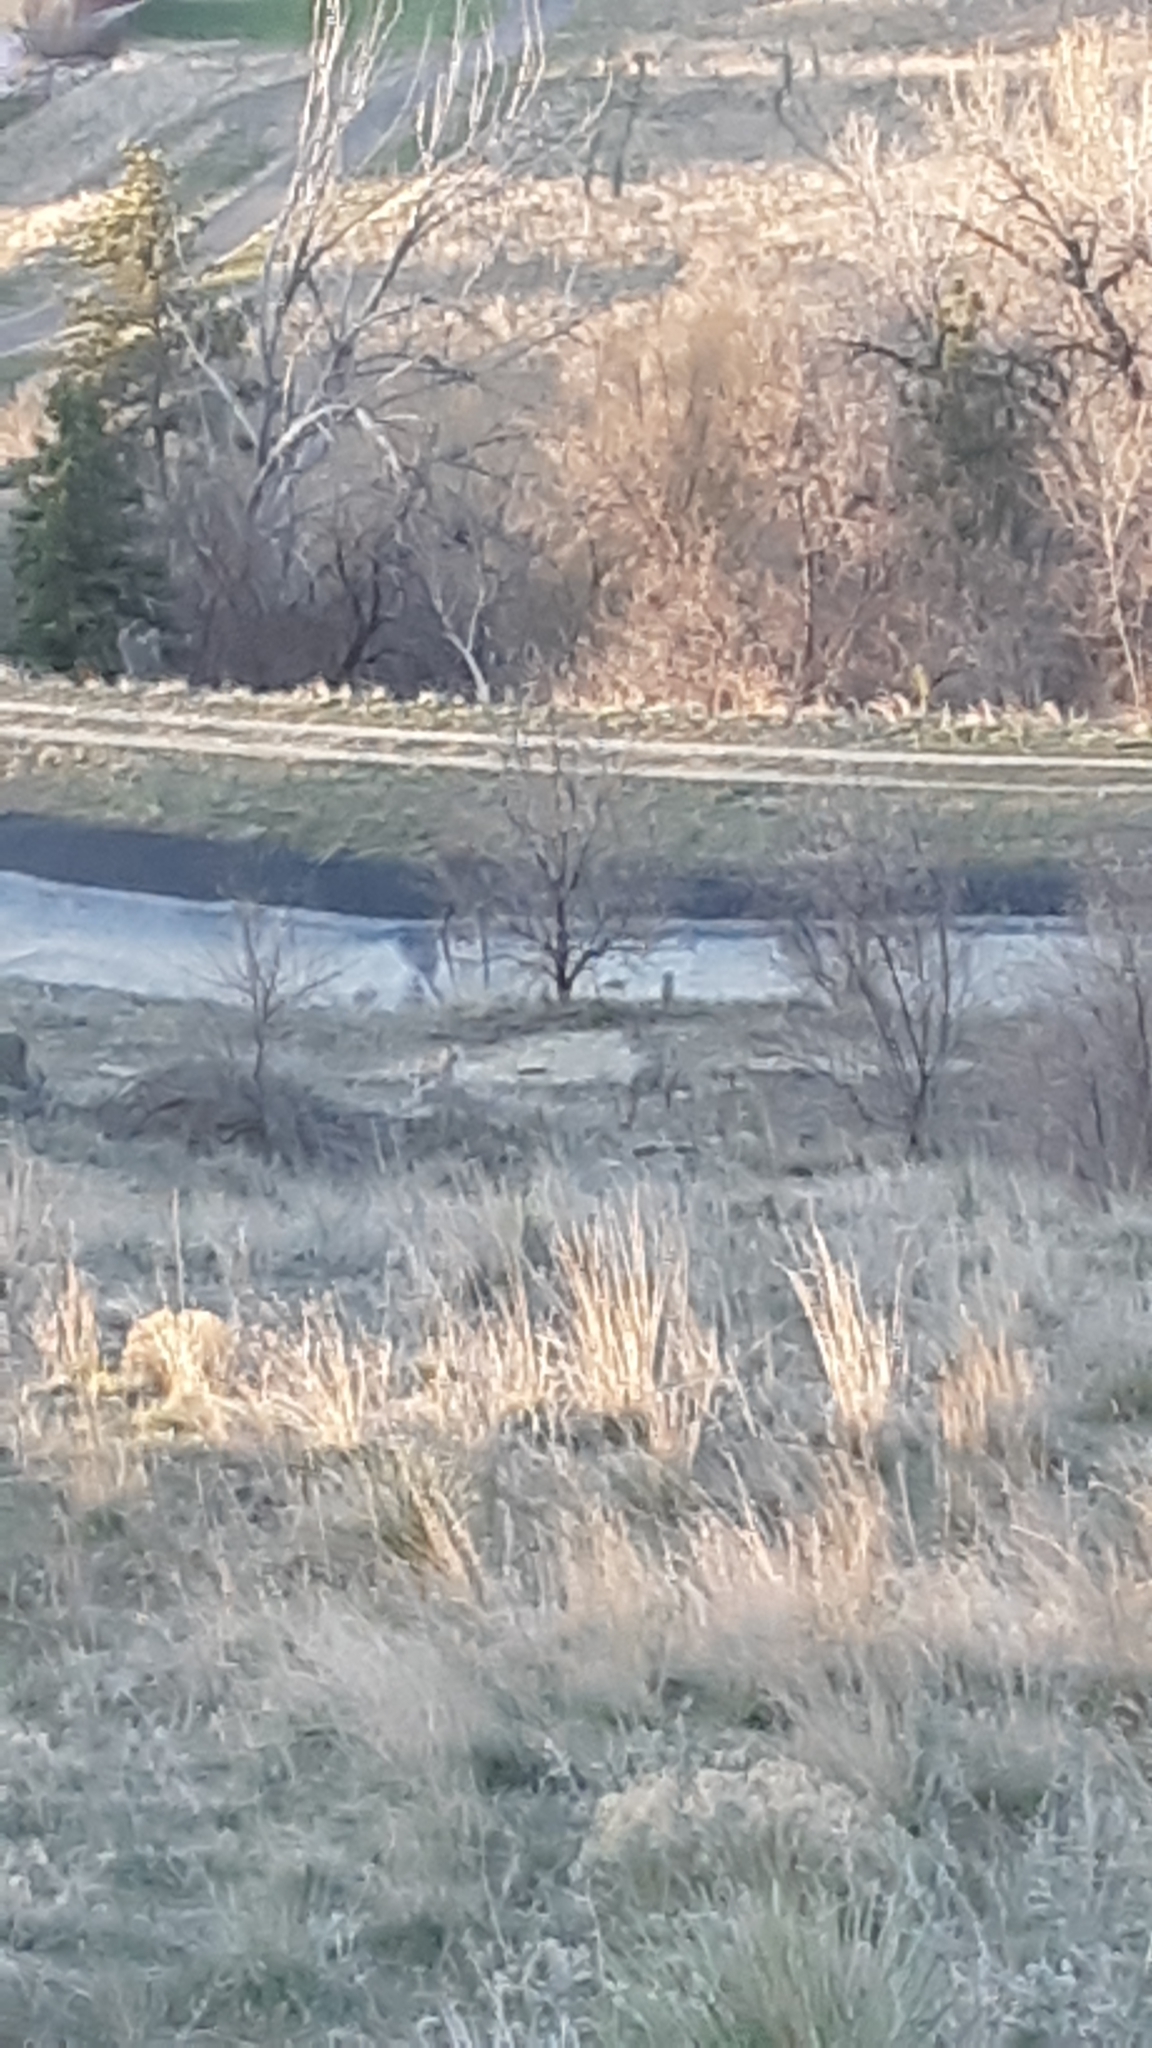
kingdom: Animalia
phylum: Chordata
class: Mammalia
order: Carnivora
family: Canidae
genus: Vulpes
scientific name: Vulpes vulpes
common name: Red fox
